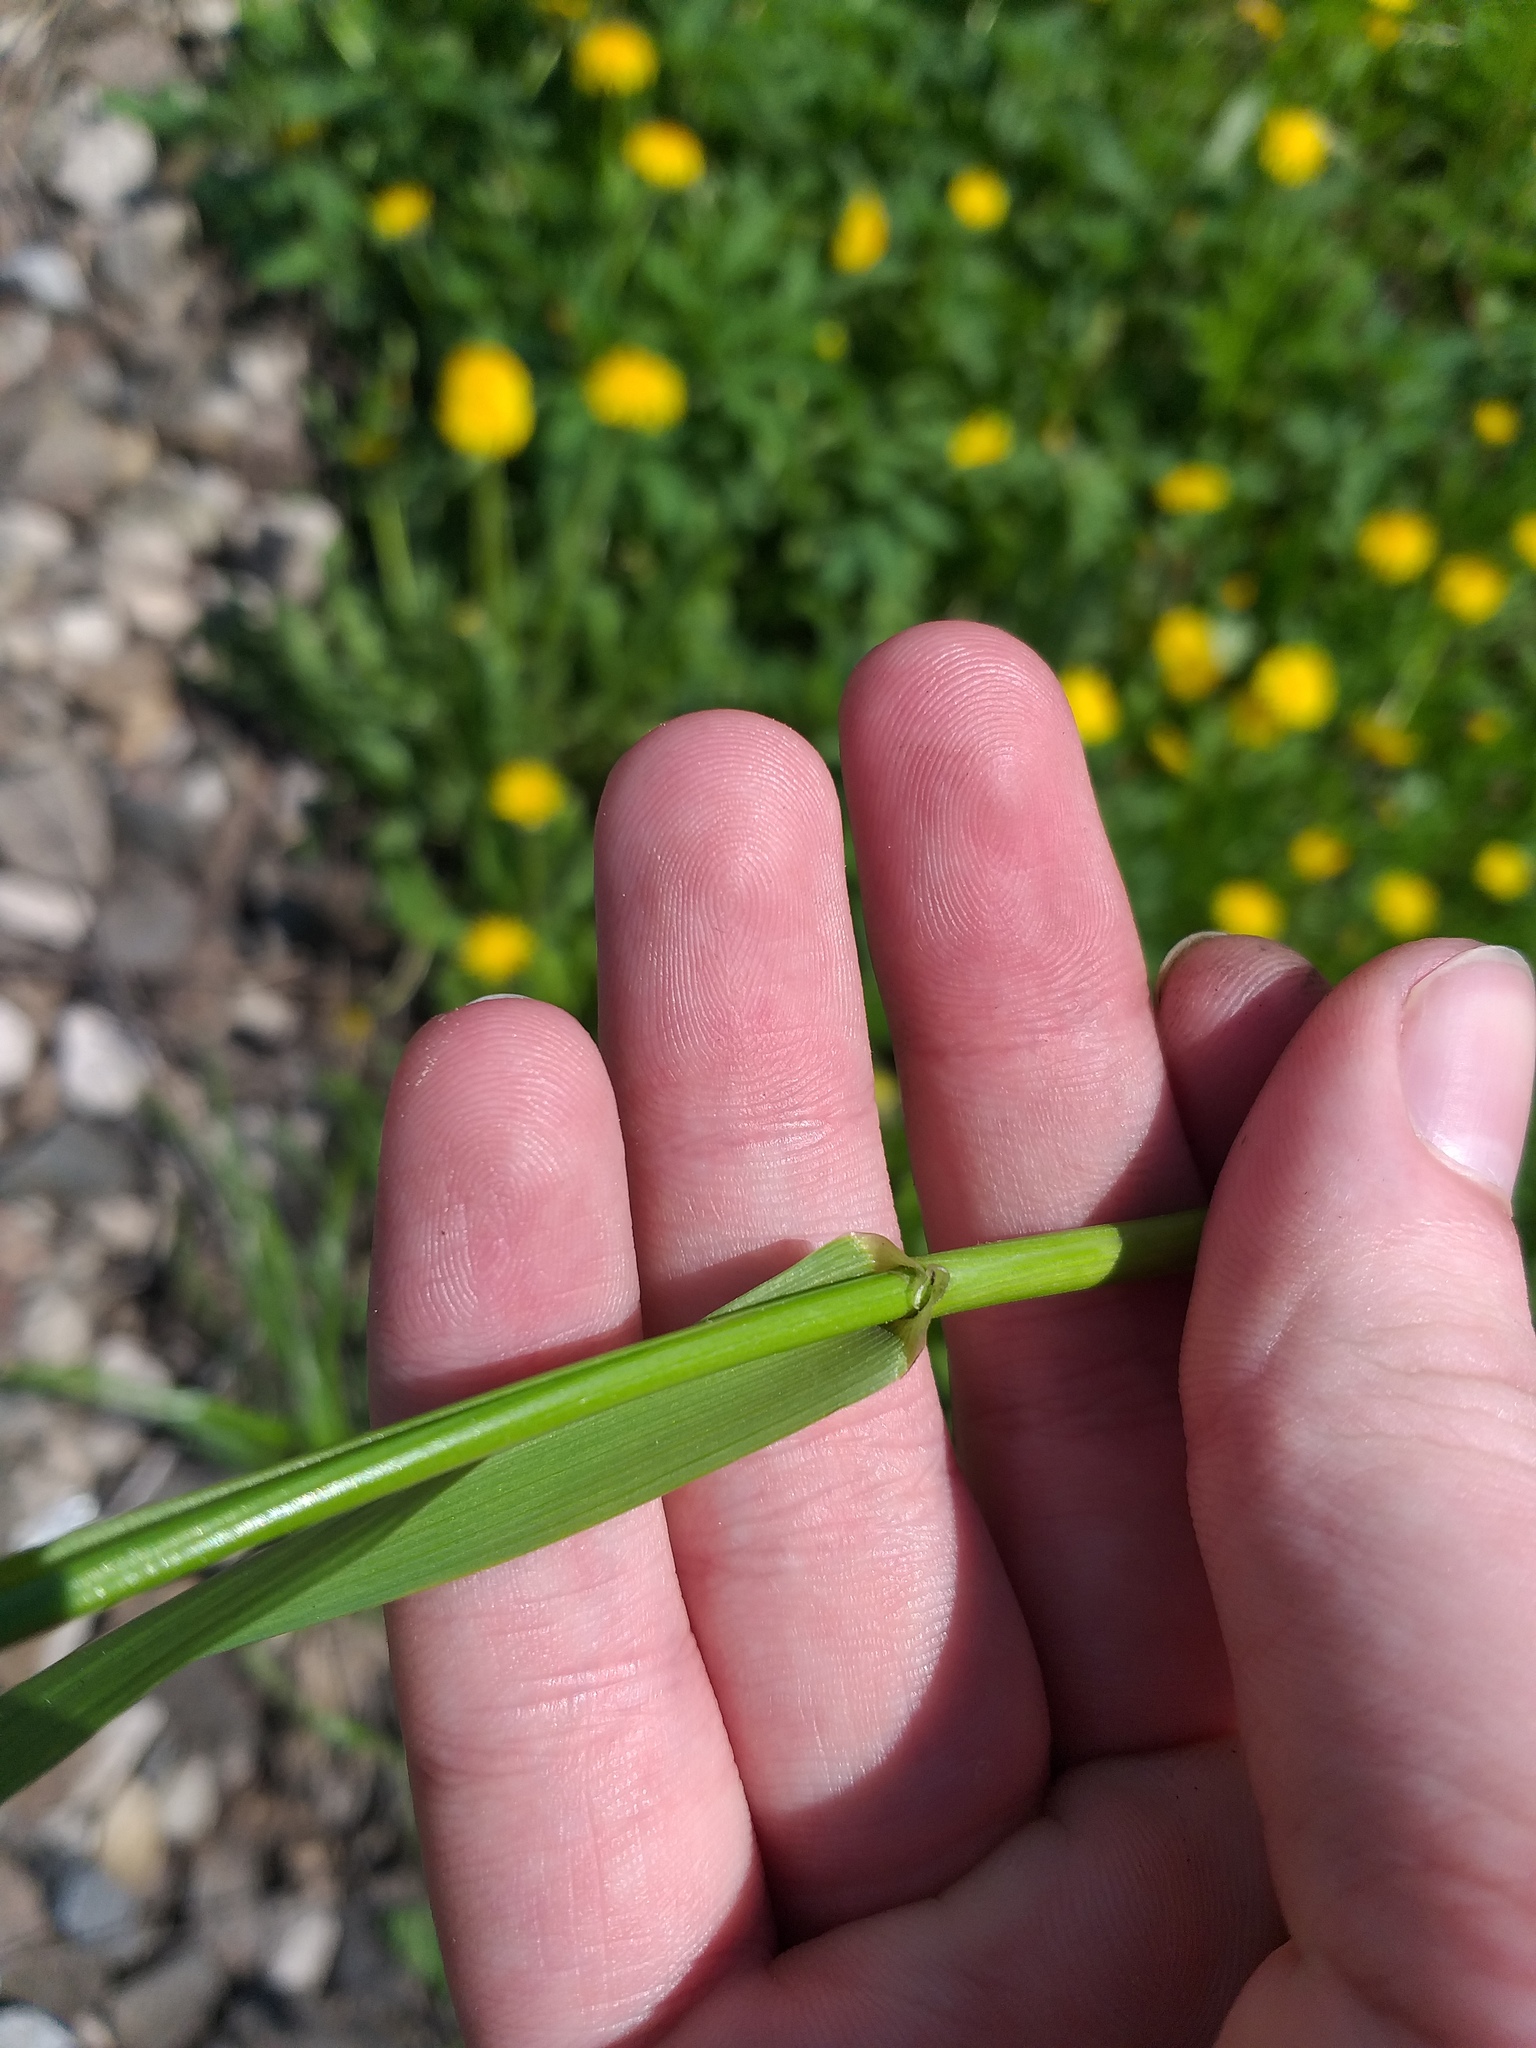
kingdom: Plantae
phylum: Tracheophyta
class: Liliopsida
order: Poales
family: Poaceae
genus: Lolium
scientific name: Lolium giganteum
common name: Giant fescue
